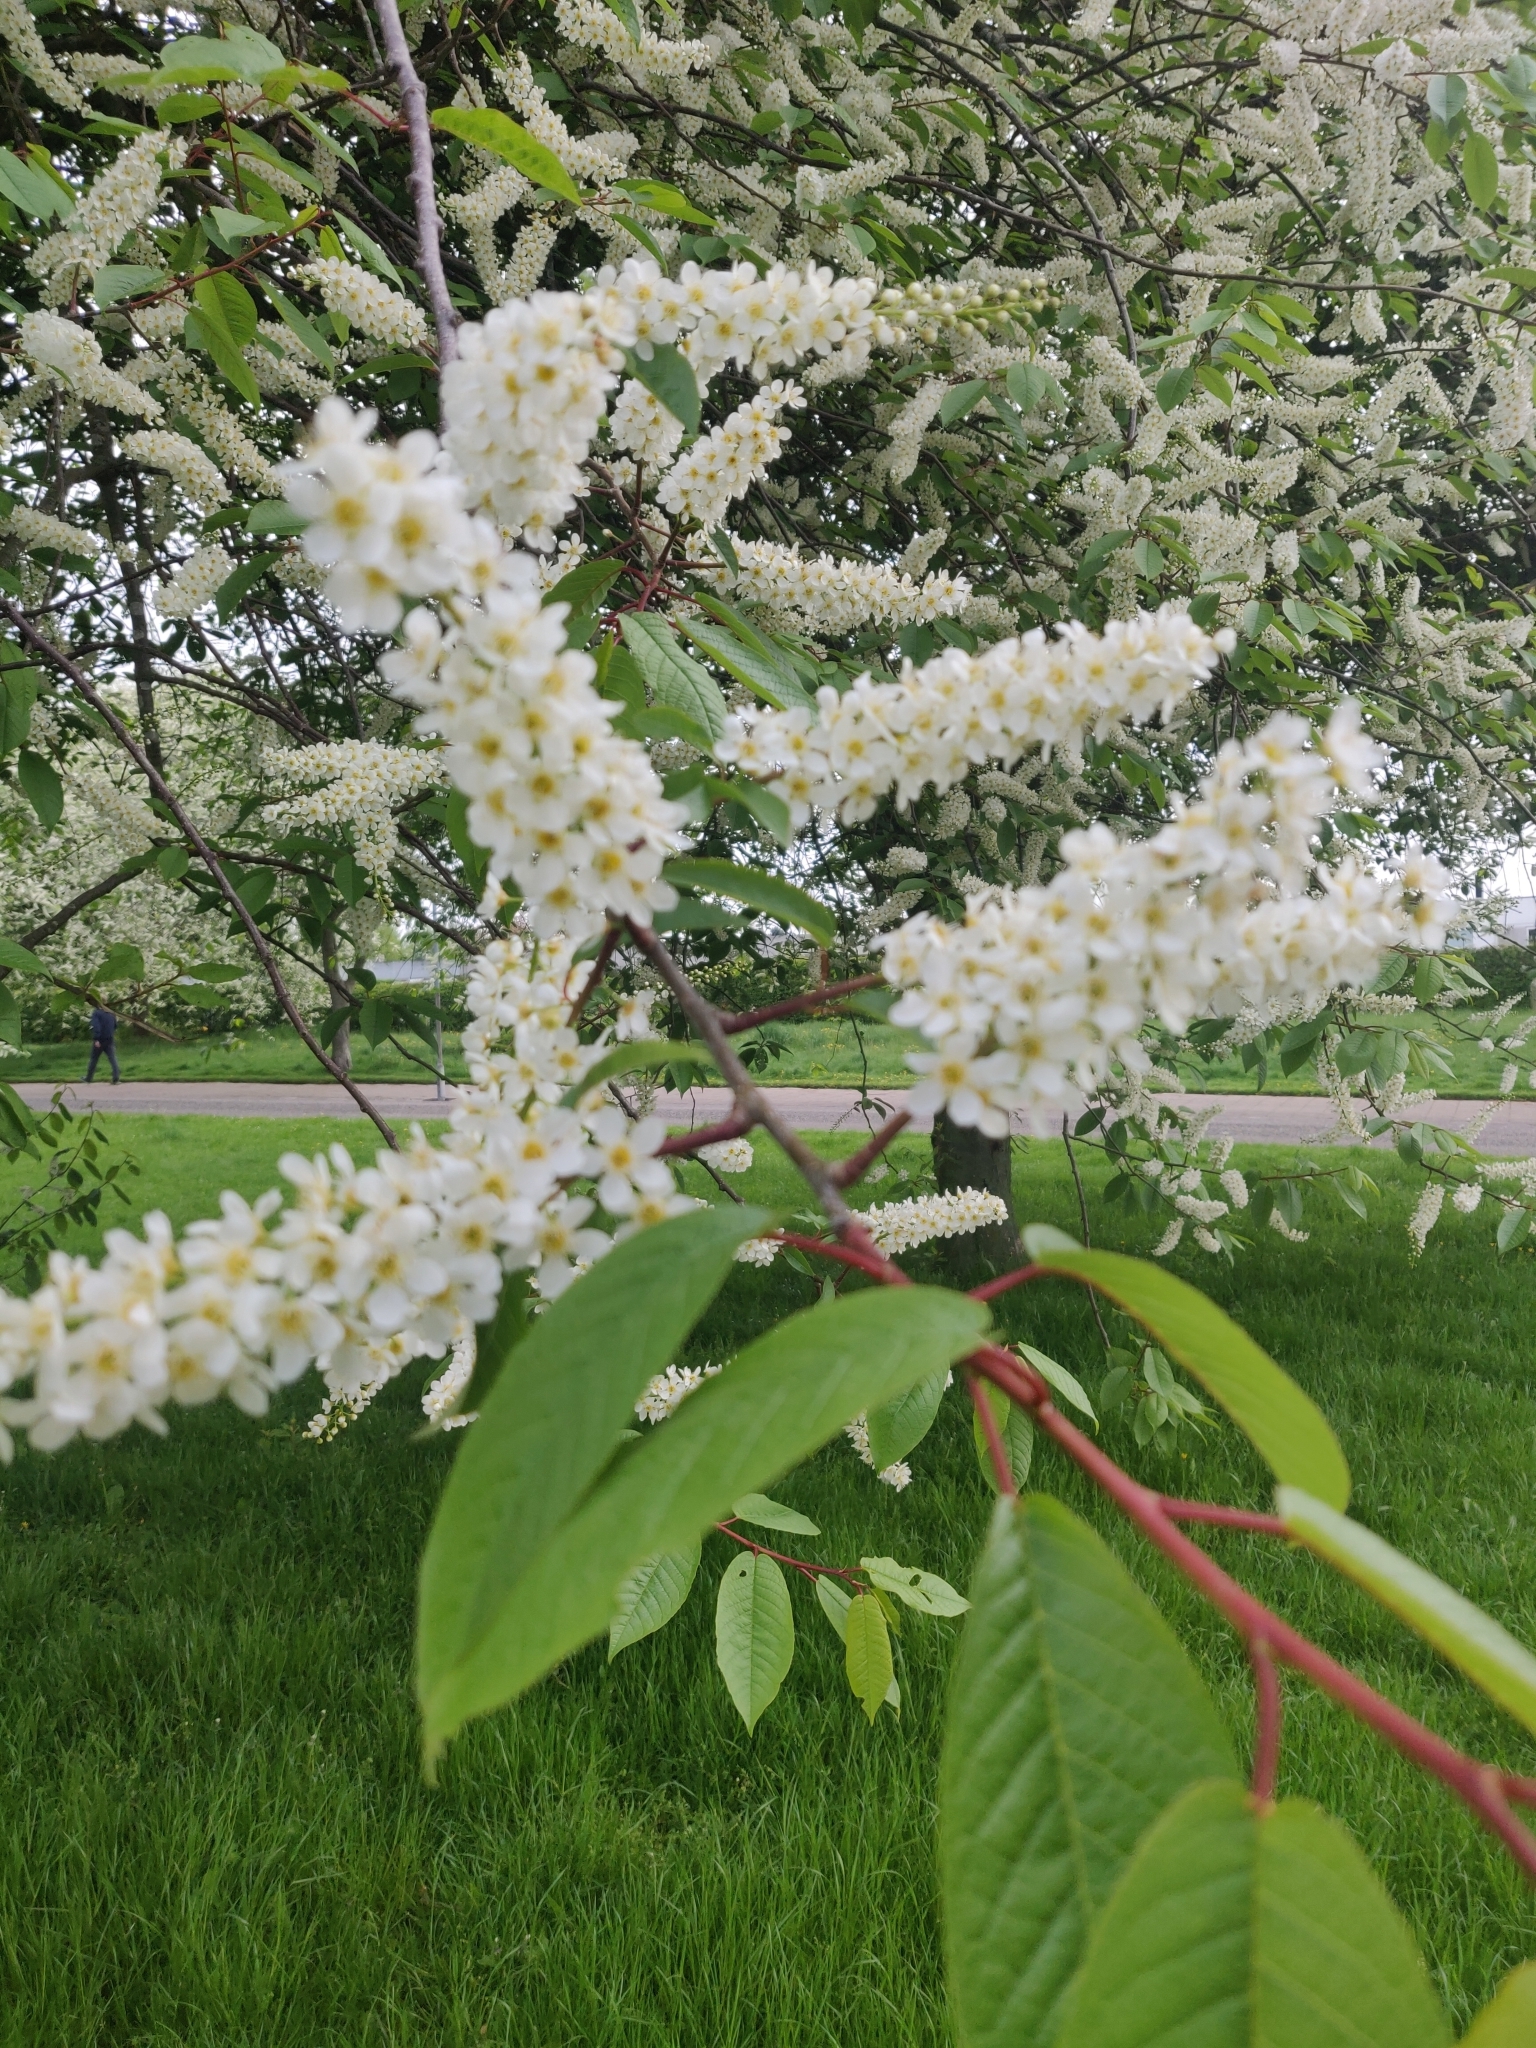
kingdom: Plantae
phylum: Tracheophyta
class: Magnoliopsida
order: Rosales
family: Rosaceae
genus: Prunus
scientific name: Prunus padus
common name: Bird cherry
